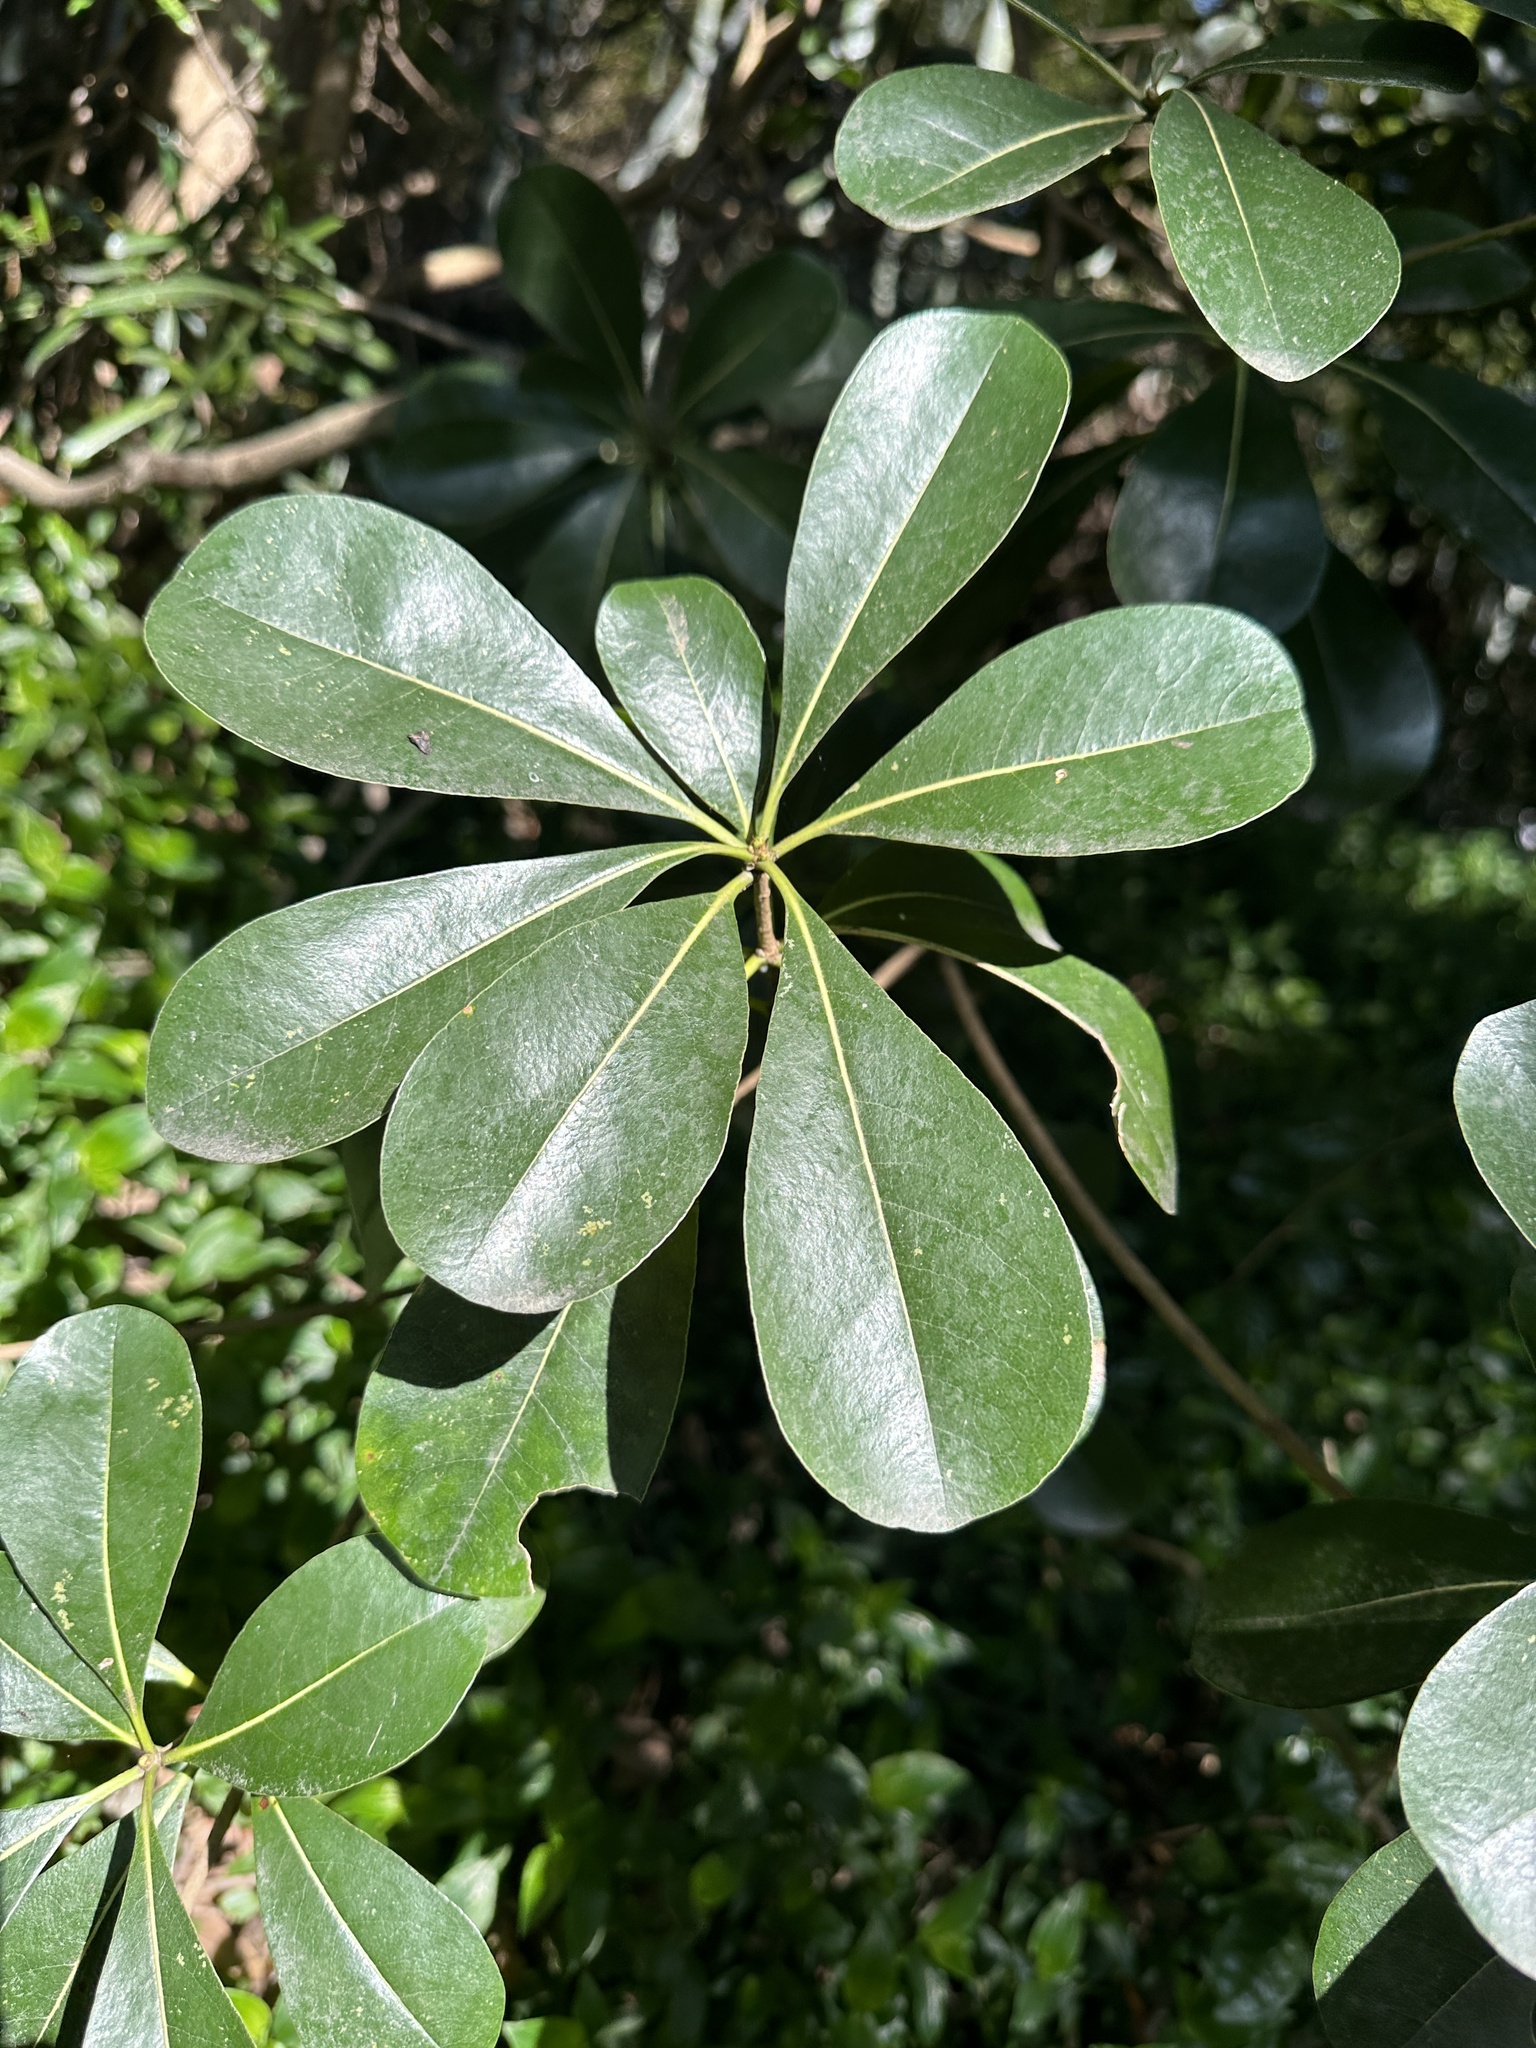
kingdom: Plantae
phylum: Tracheophyta
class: Magnoliopsida
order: Apiales
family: Pittosporaceae
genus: Pittosporum
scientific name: Pittosporum tobira
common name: Japanese cheesewood
